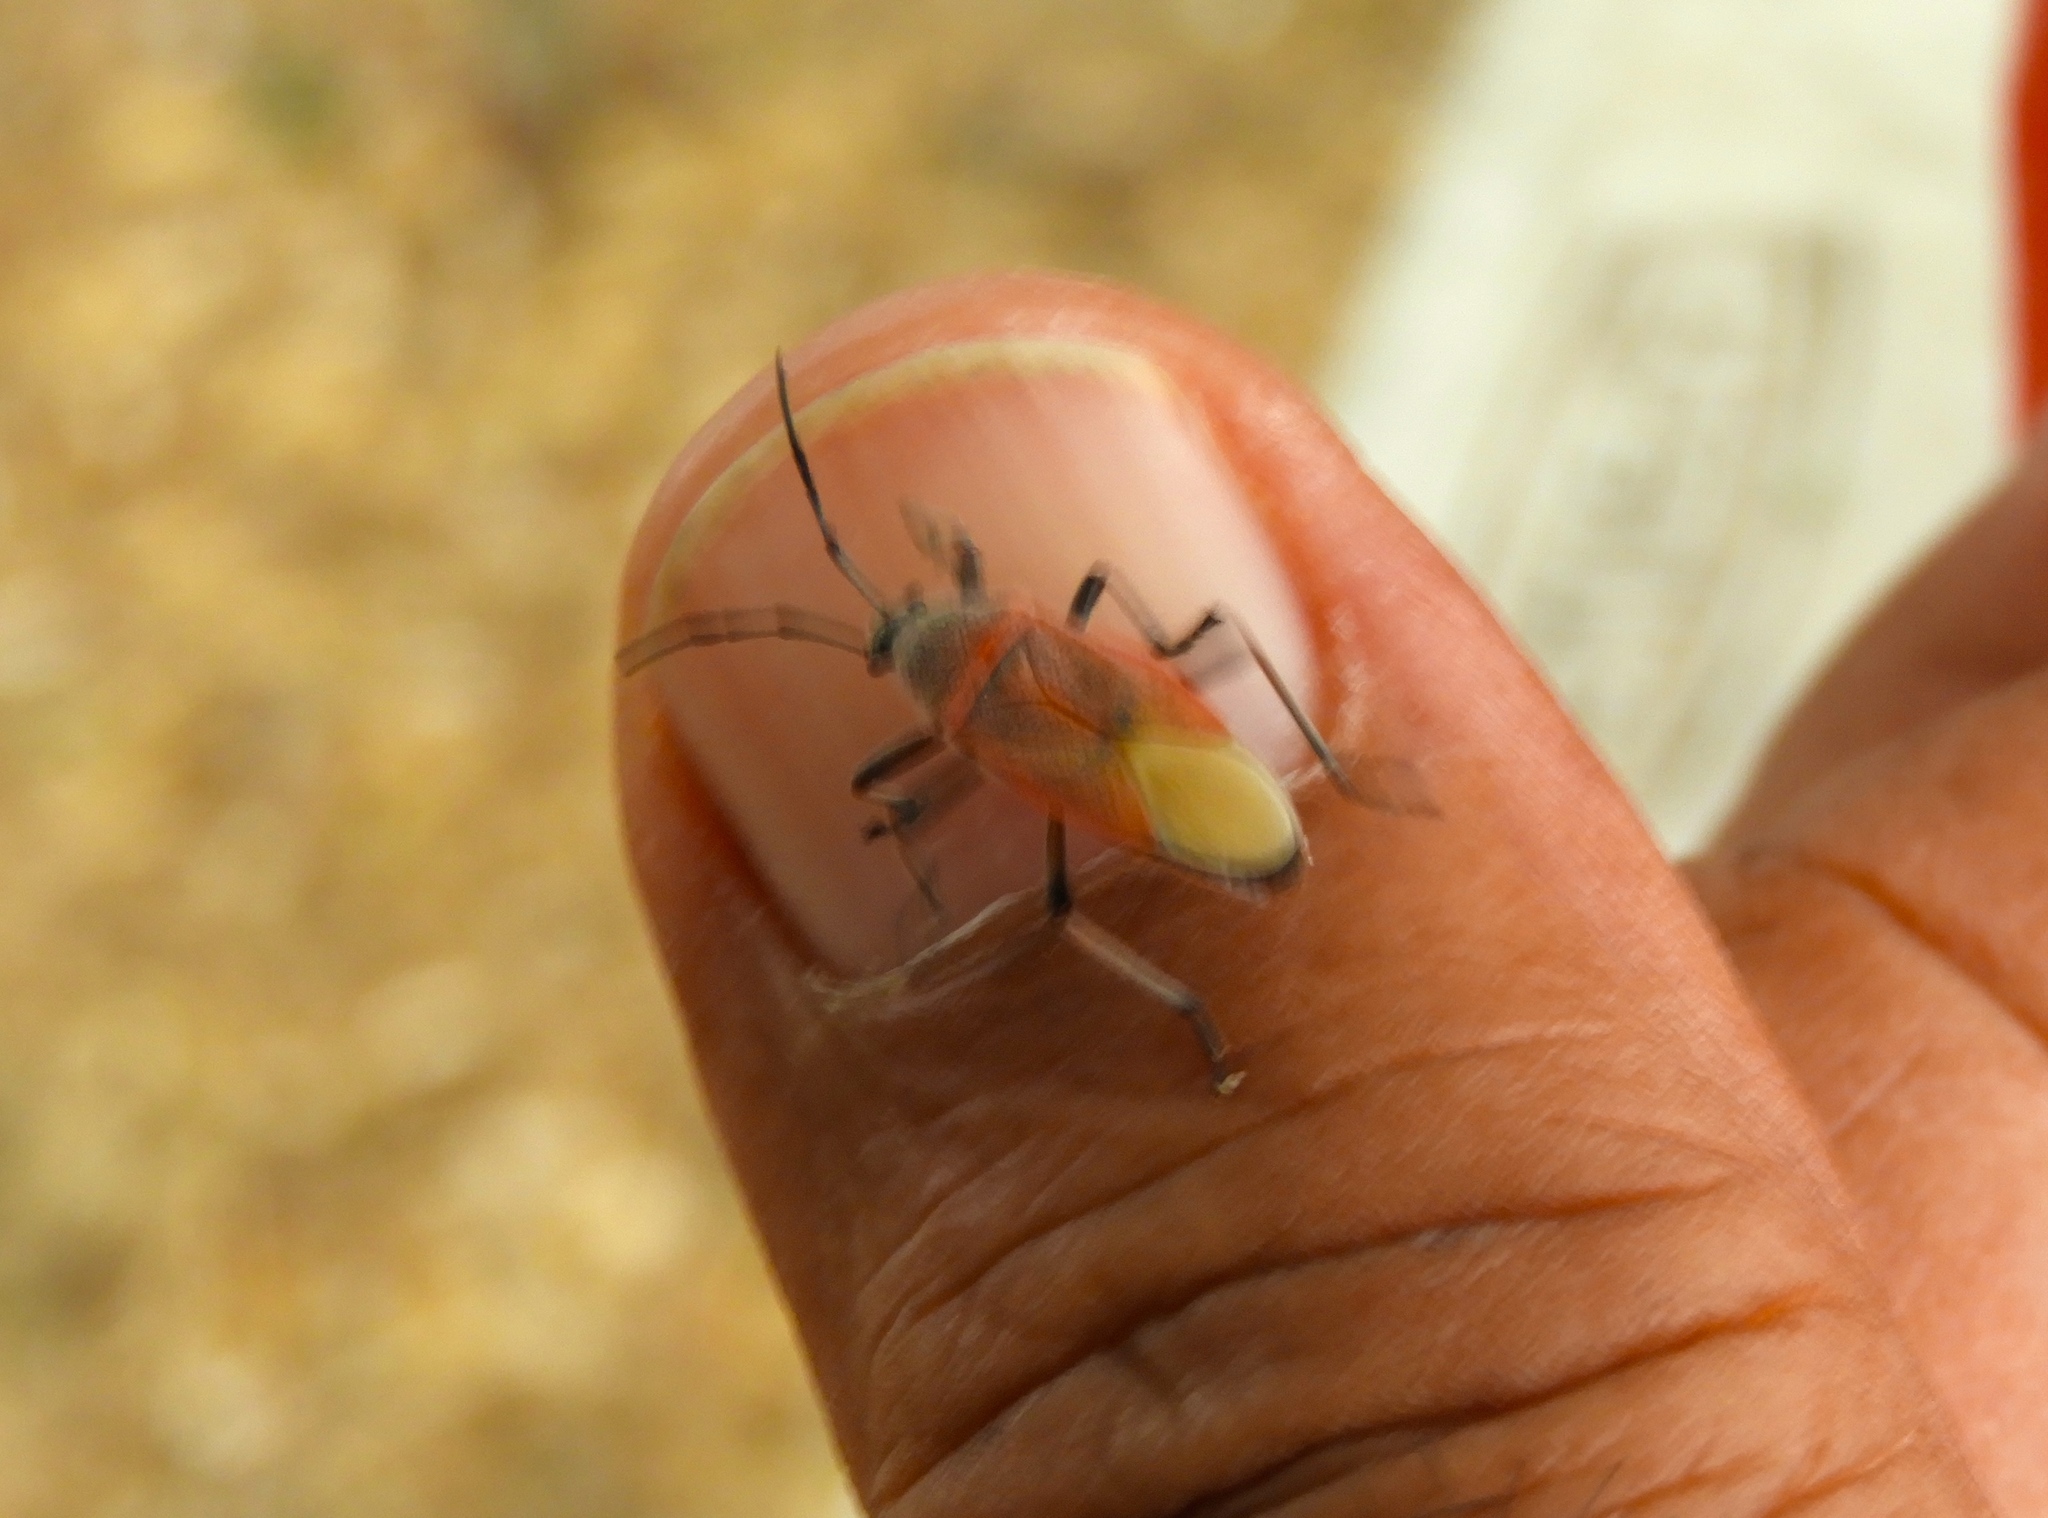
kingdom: Animalia
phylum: Arthropoda
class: Insecta
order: Hemiptera
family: Largidae
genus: Largus
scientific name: Largus
